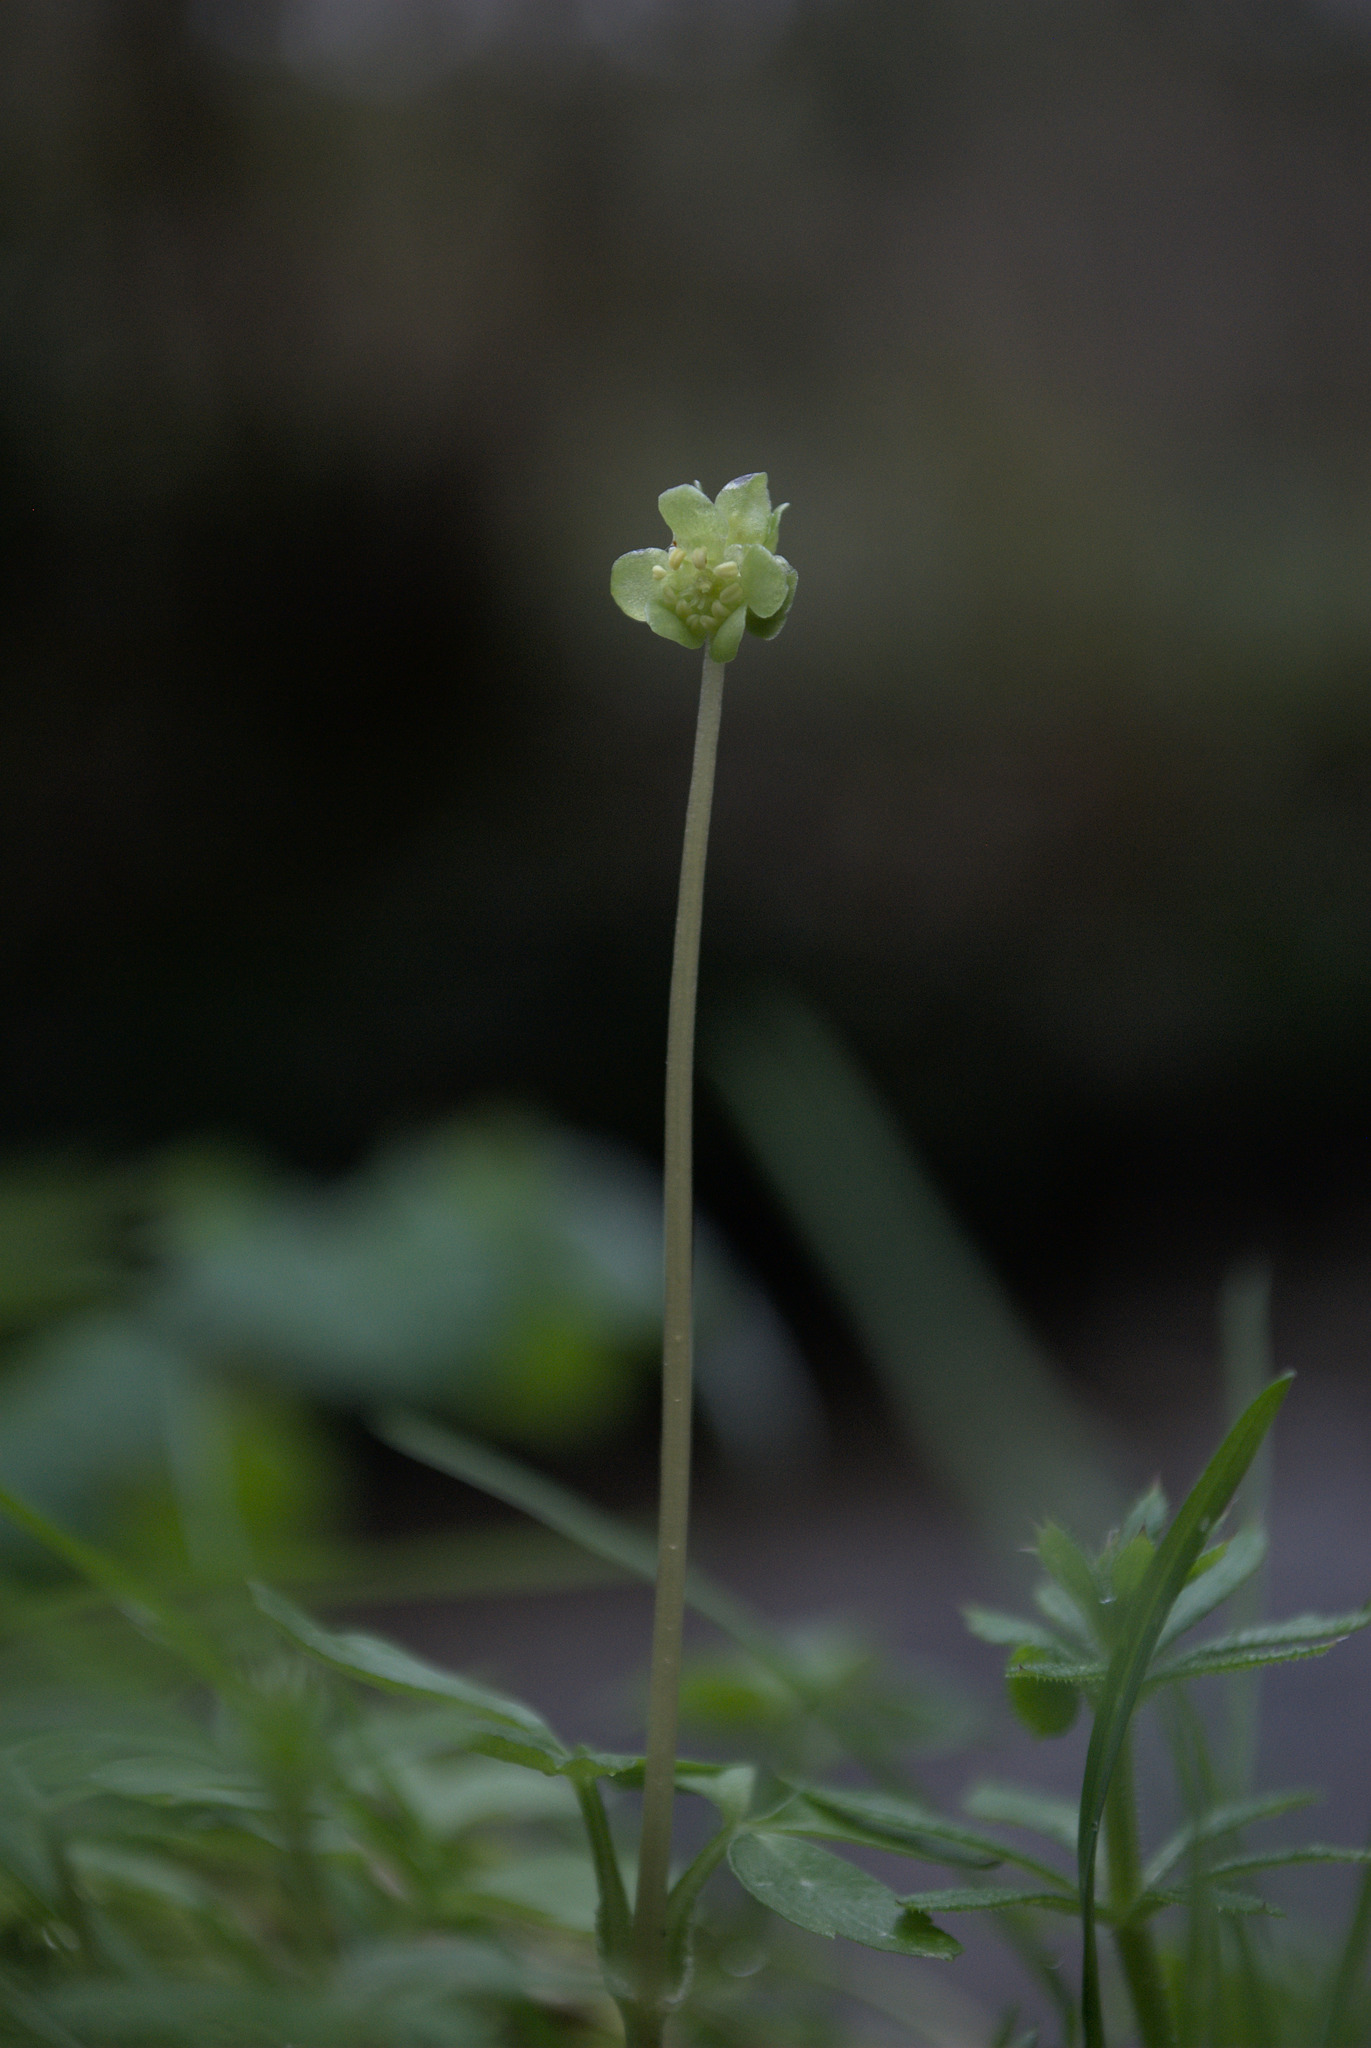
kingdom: Plantae
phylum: Tracheophyta
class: Magnoliopsida
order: Dipsacales
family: Viburnaceae
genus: Adoxa
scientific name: Adoxa moschatellina
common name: Moschatel
